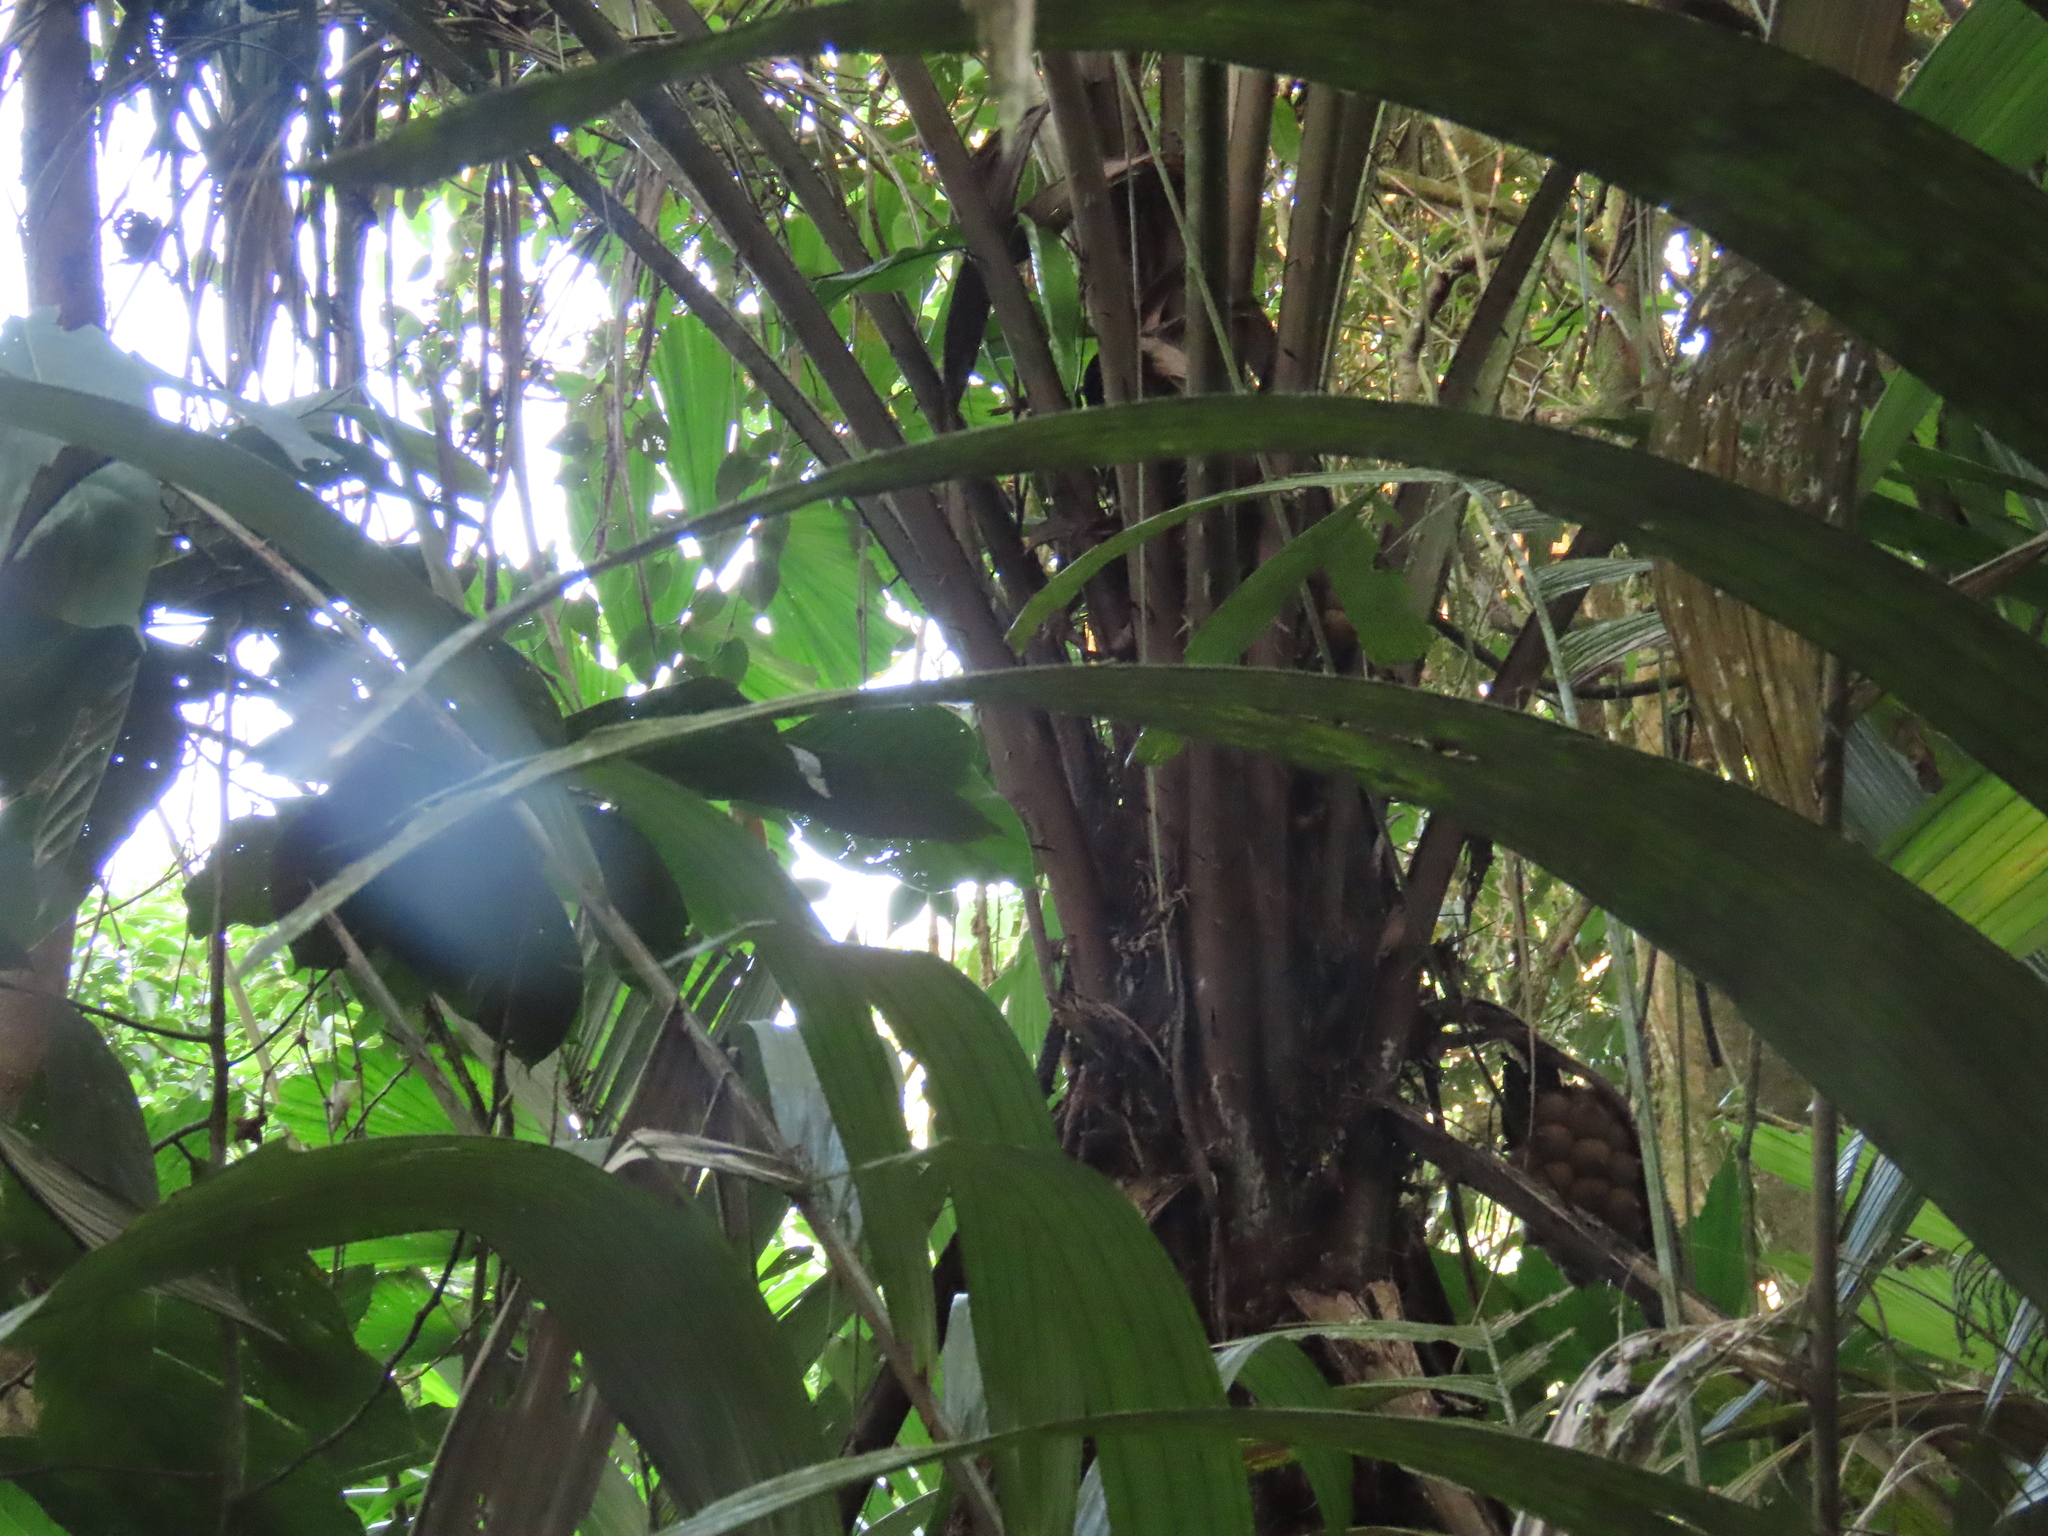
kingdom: Plantae
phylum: Tracheophyta
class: Liliopsida
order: Arecales
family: Arecaceae
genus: Astrocaryum
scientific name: Astrocaryum alatum
